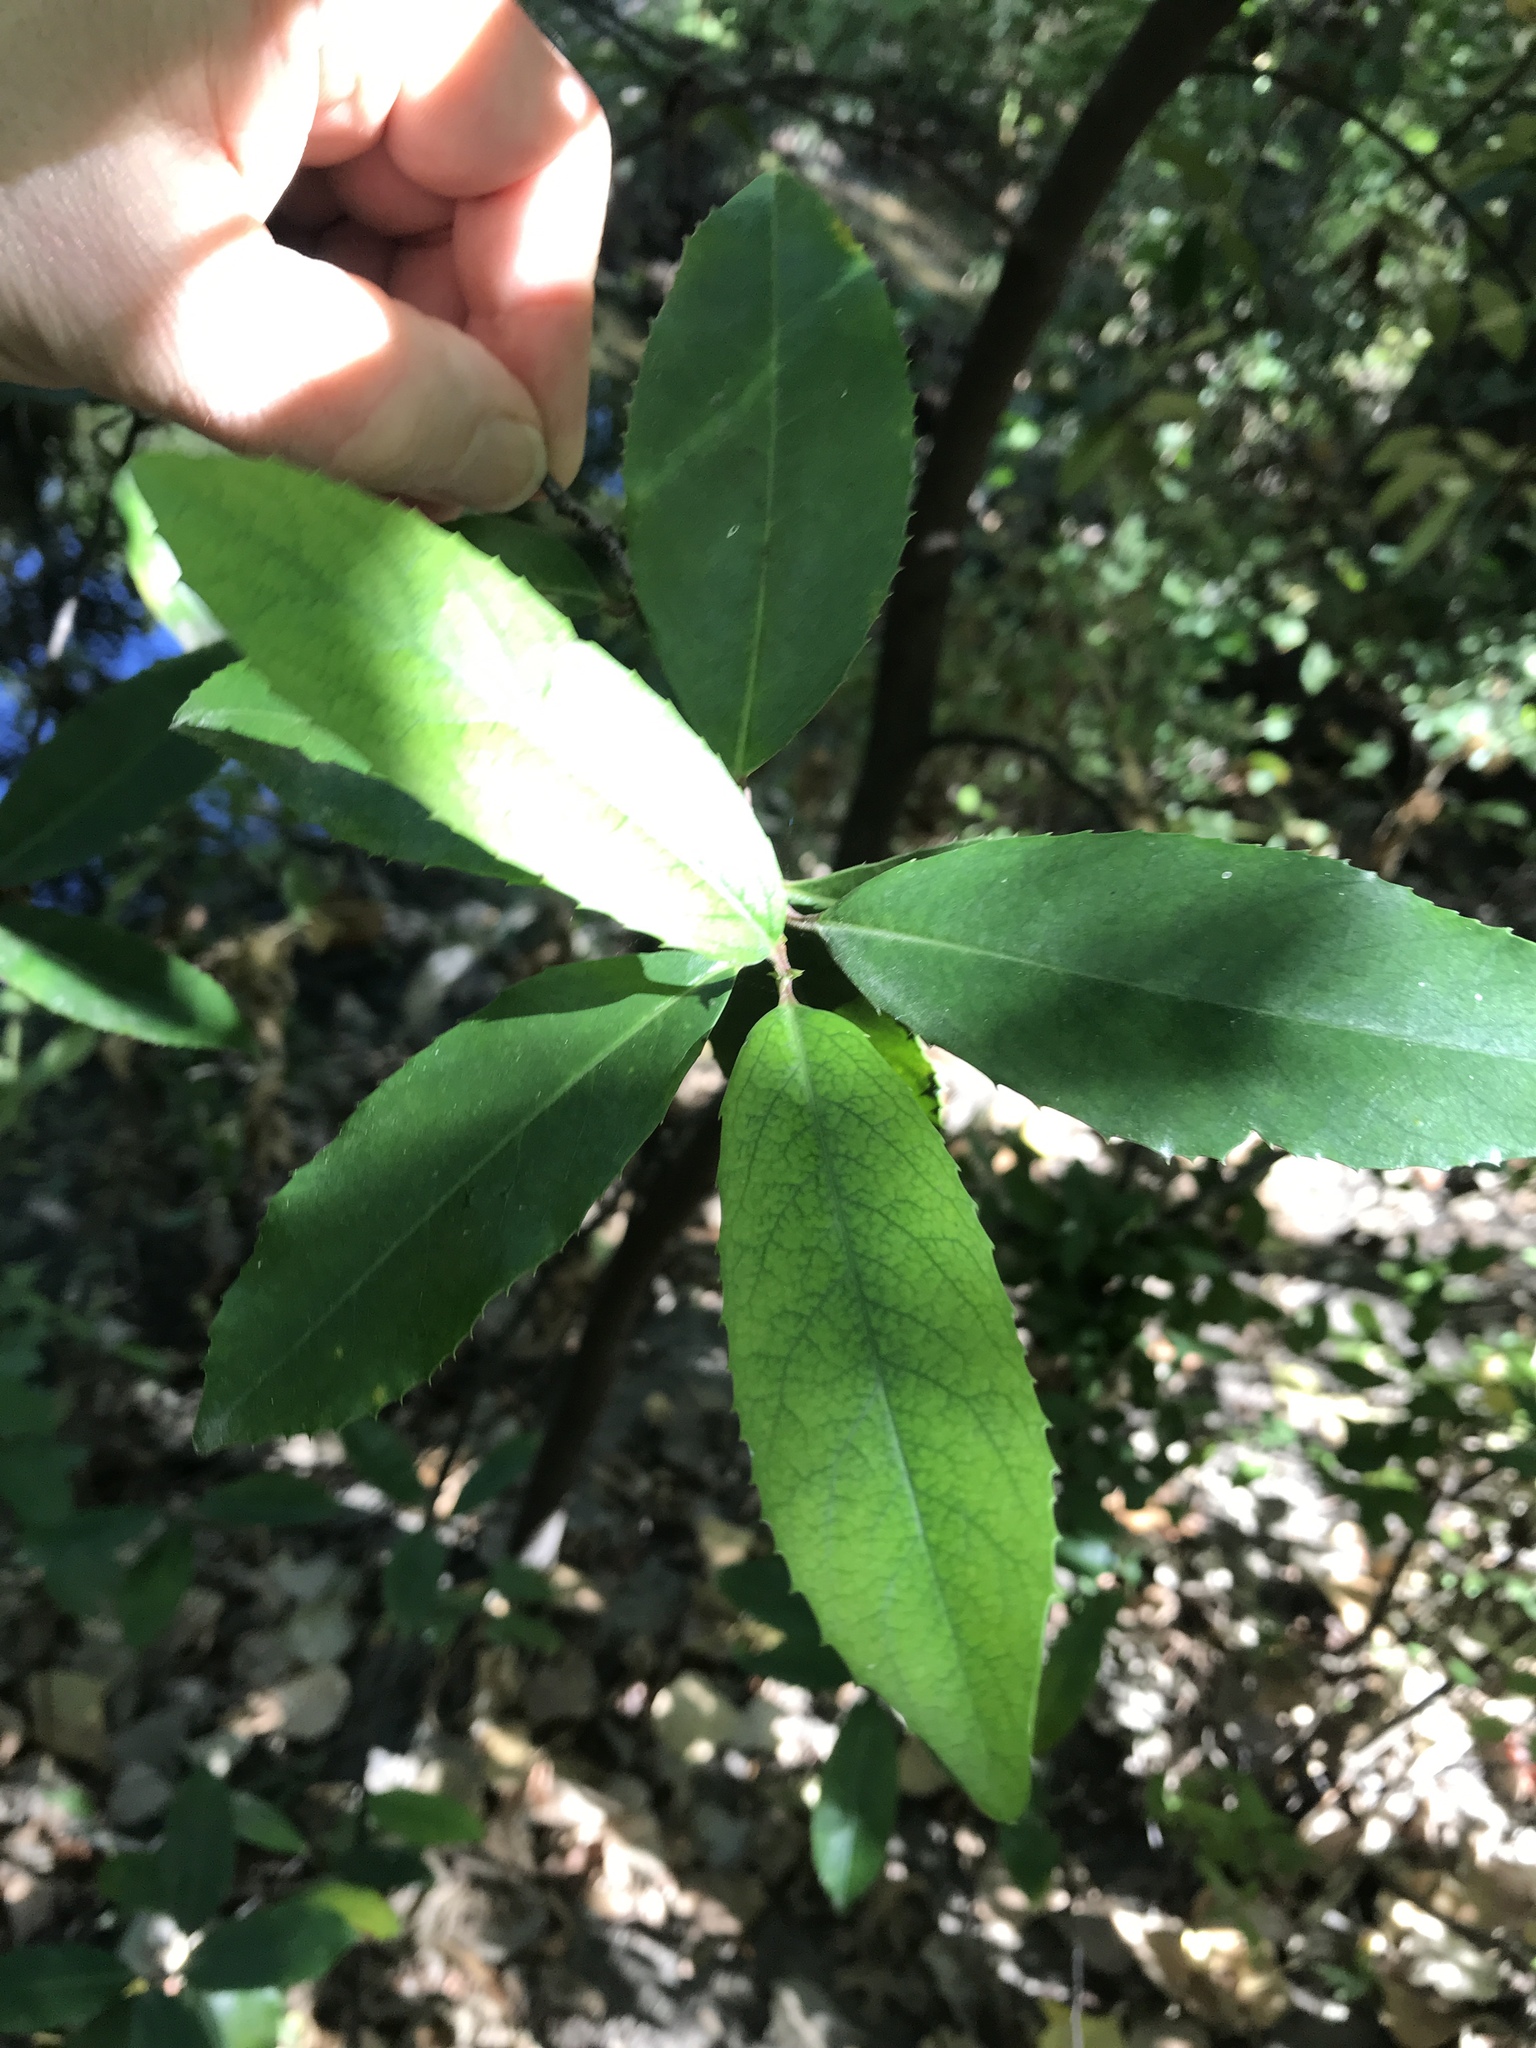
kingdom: Plantae
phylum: Tracheophyta
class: Magnoliopsida
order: Rosales
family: Rosaceae
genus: Prunus
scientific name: Prunus caroliniana
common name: Carolina laurel cherry
